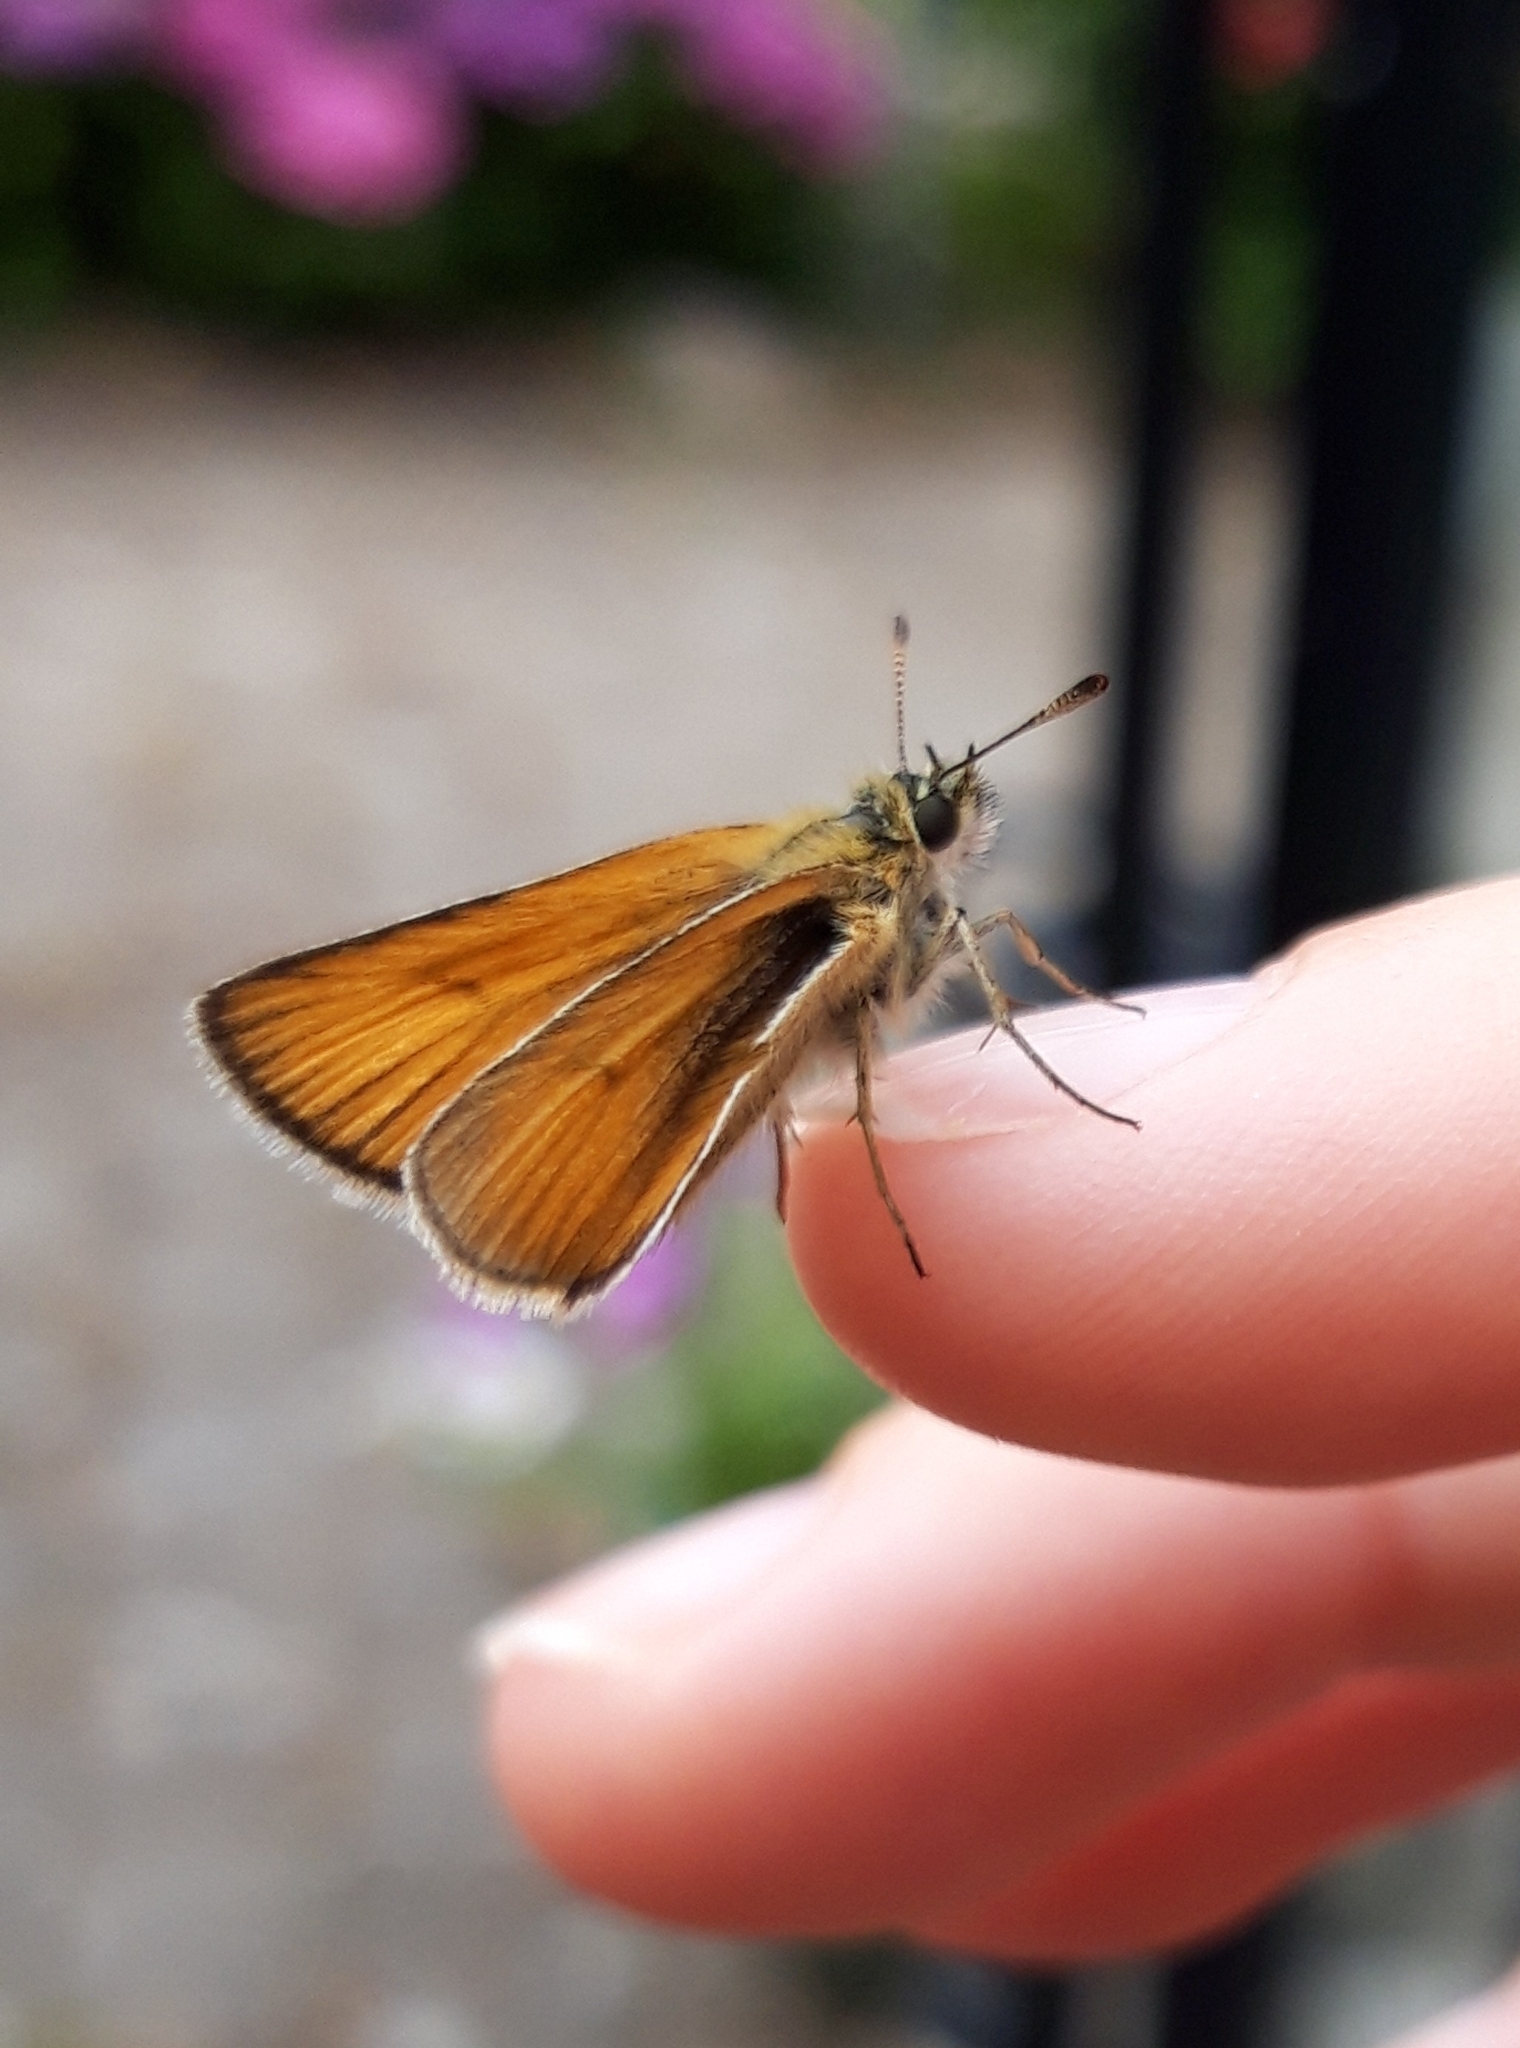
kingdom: Animalia
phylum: Arthropoda
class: Insecta
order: Lepidoptera
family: Hesperiidae
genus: Thymelicus
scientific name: Thymelicus lineola
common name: Essex skipper
